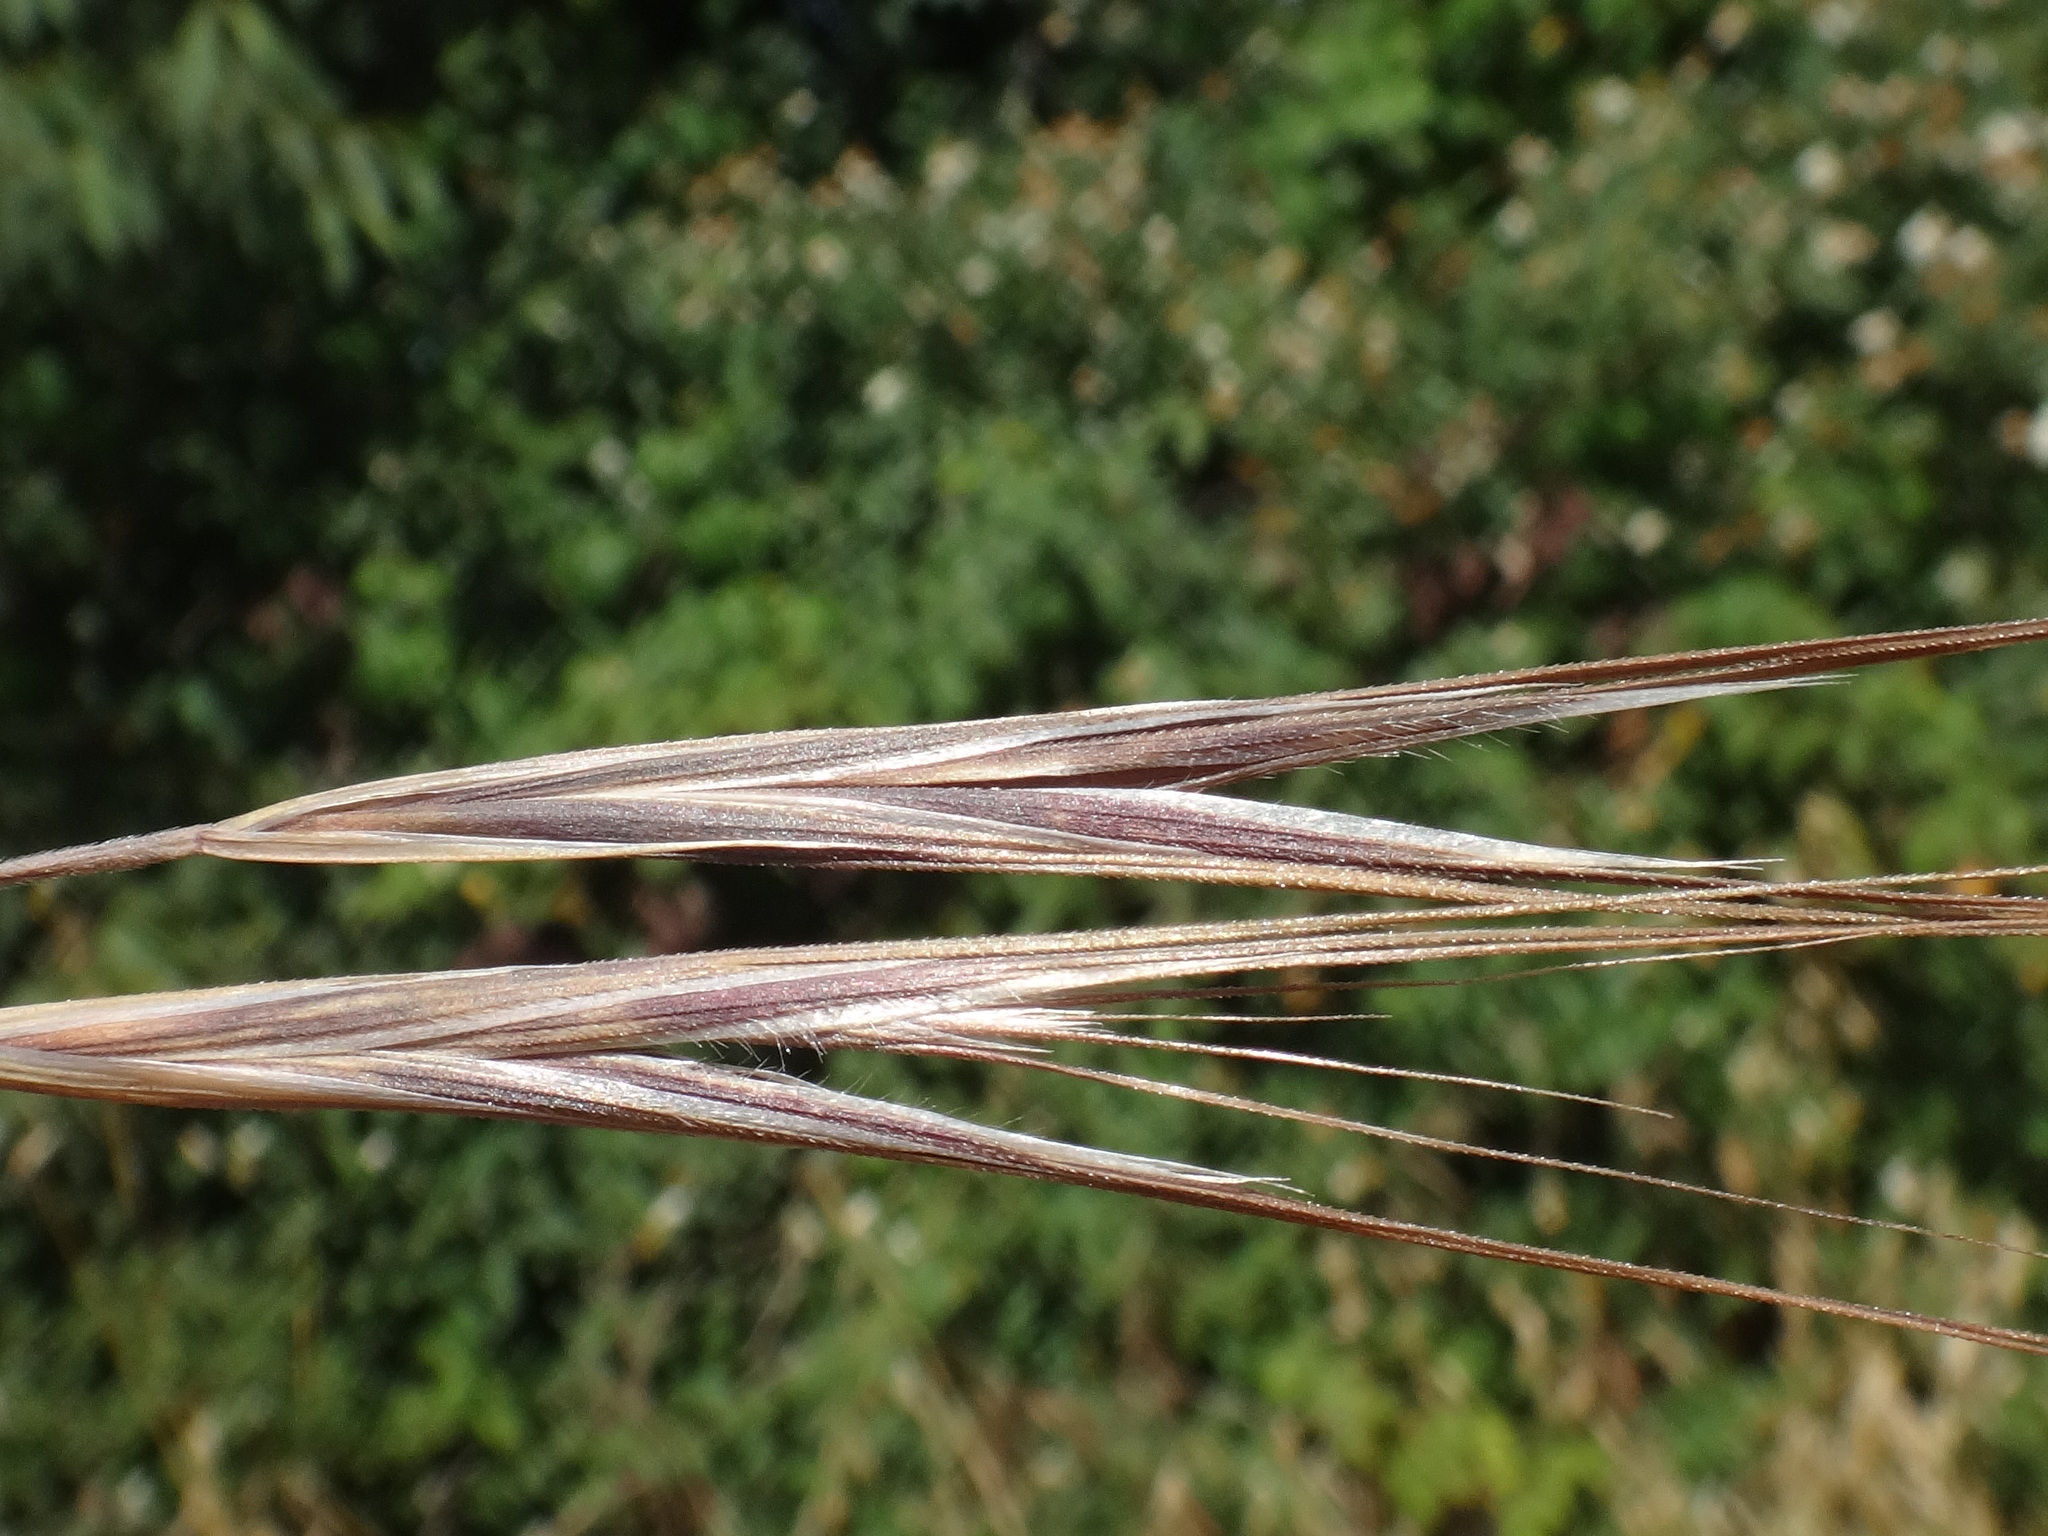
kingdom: Plantae
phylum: Tracheophyta
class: Liliopsida
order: Poales
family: Poaceae
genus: Bromus
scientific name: Bromus sterilis
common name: Poverty brome
